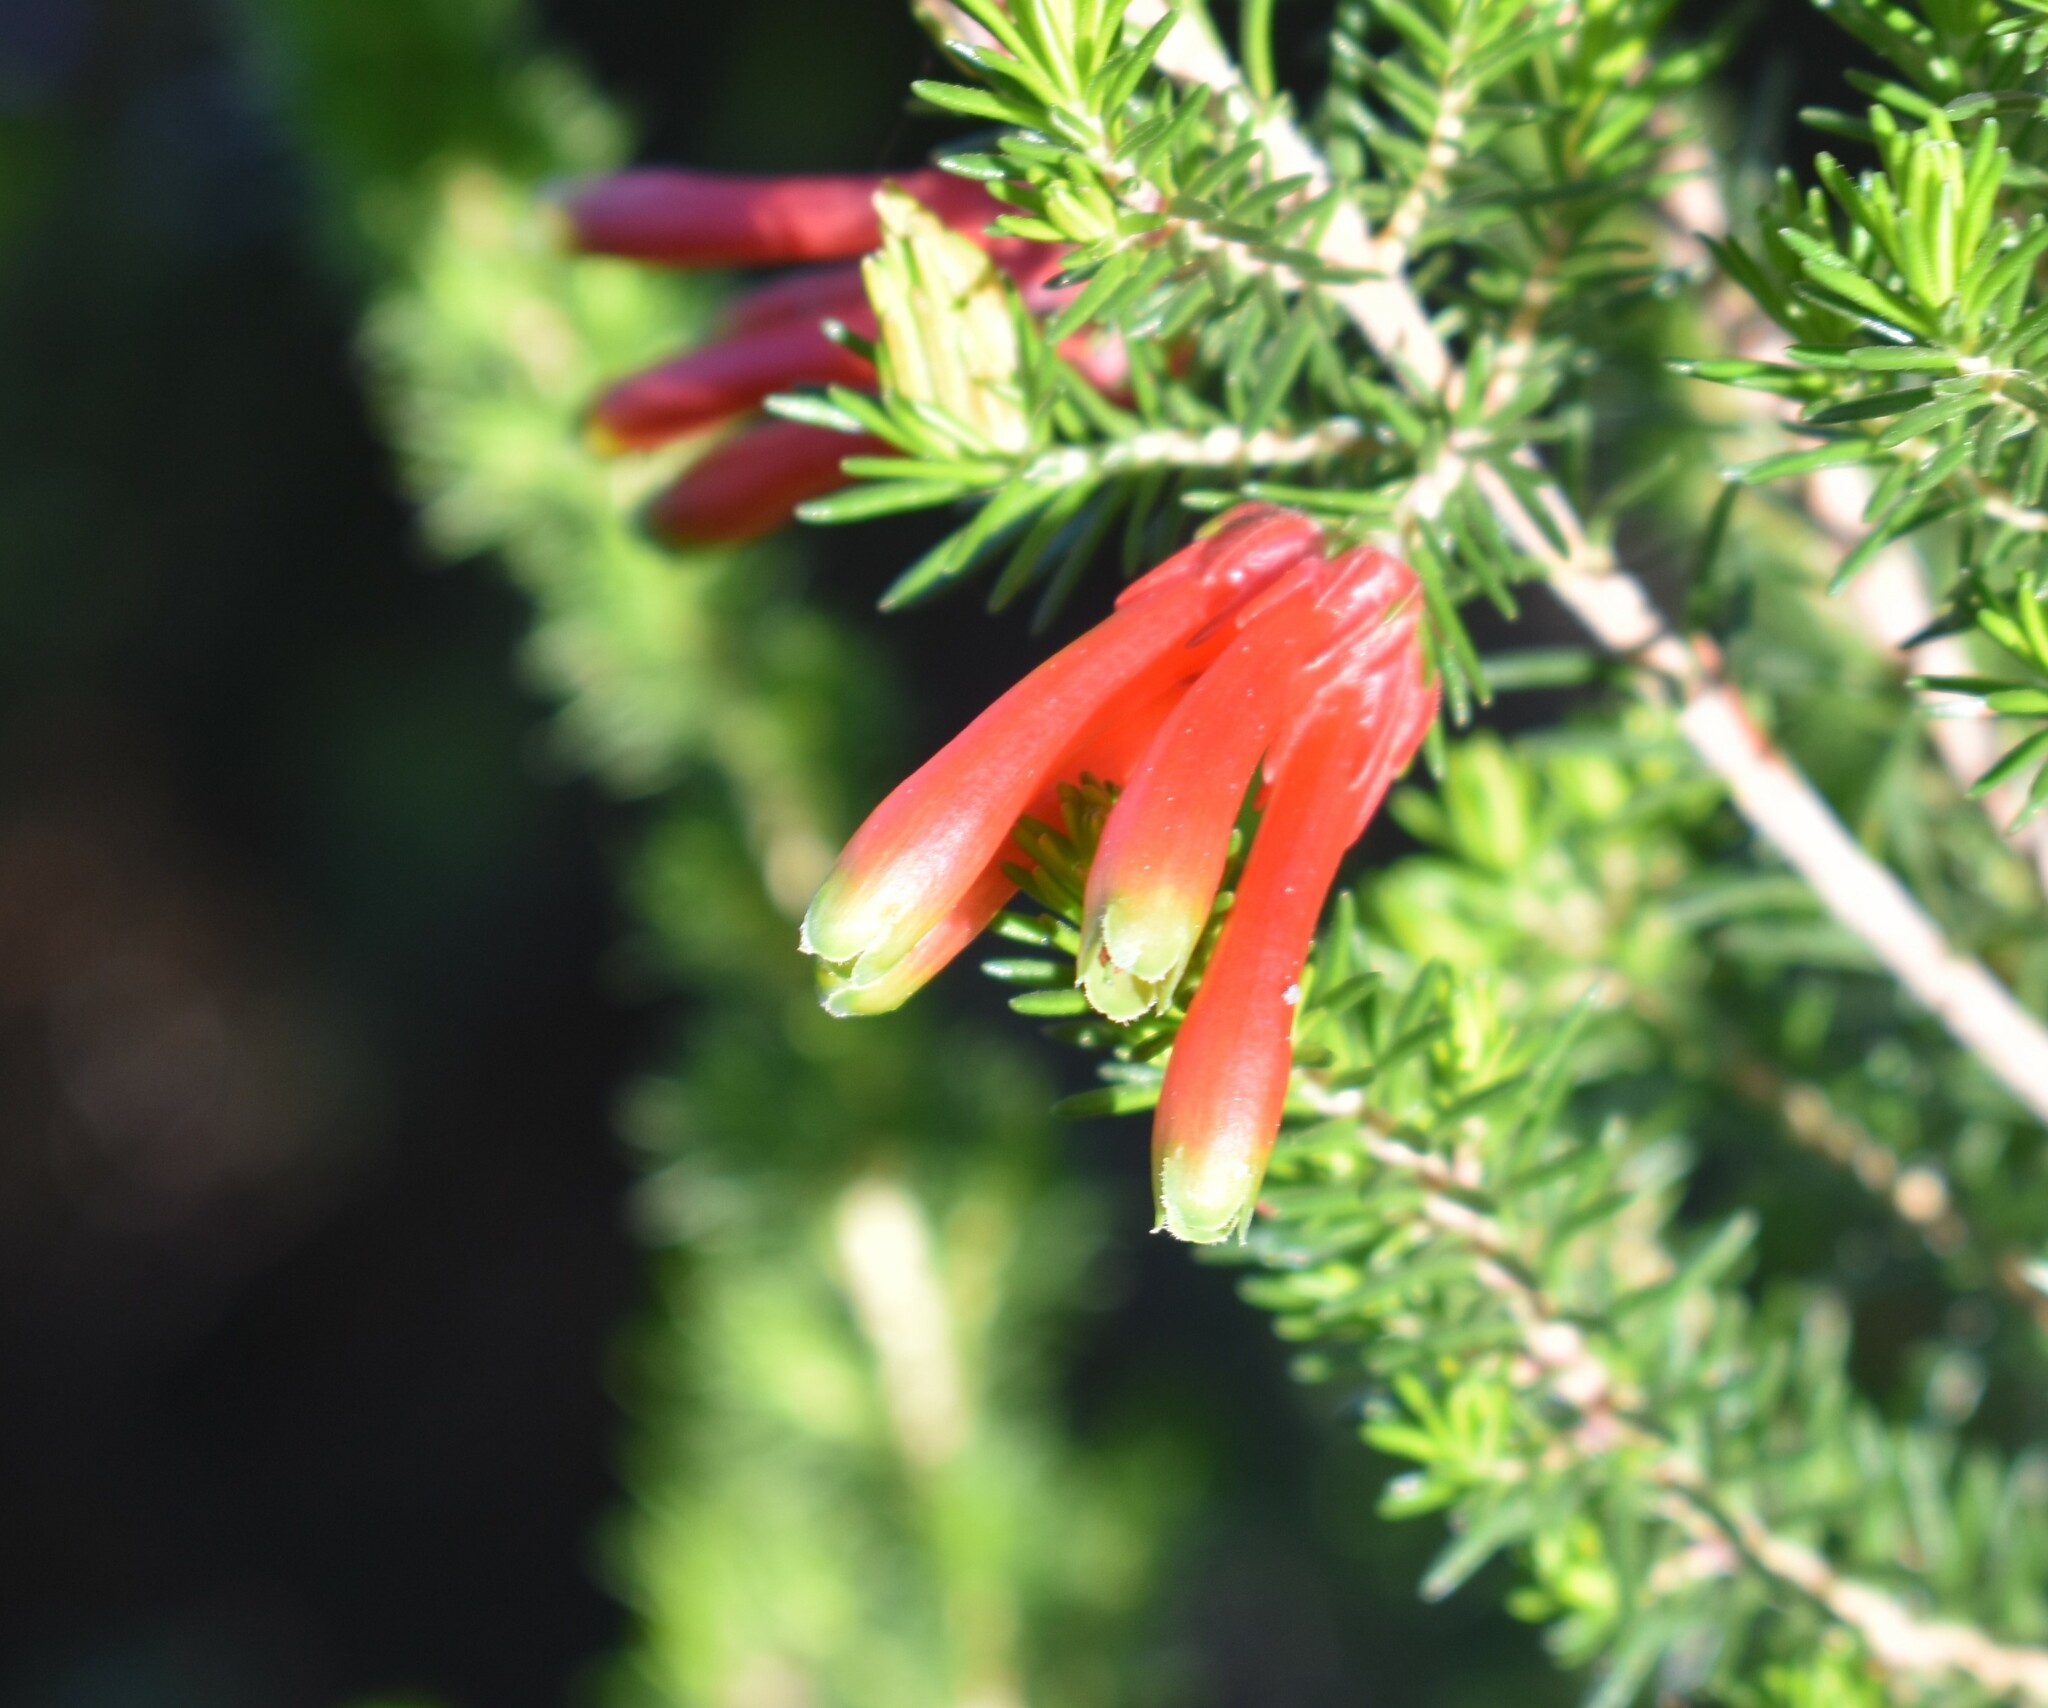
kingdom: Plantae
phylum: Tracheophyta
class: Magnoliopsida
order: Ericales
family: Ericaceae
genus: Erica
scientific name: Erica unicolor
